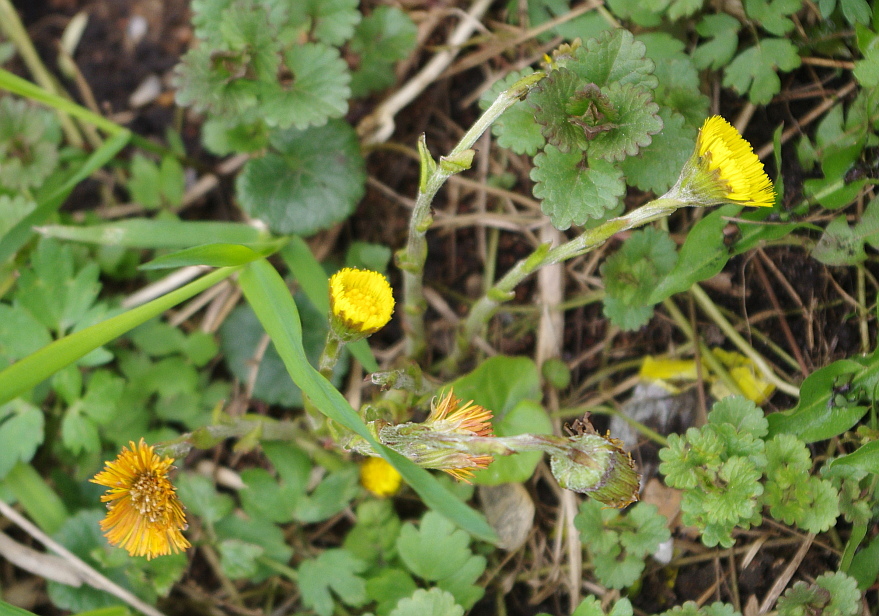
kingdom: Plantae
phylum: Tracheophyta
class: Magnoliopsida
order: Asterales
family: Asteraceae
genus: Tussilago
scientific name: Tussilago farfara
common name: Coltsfoot
